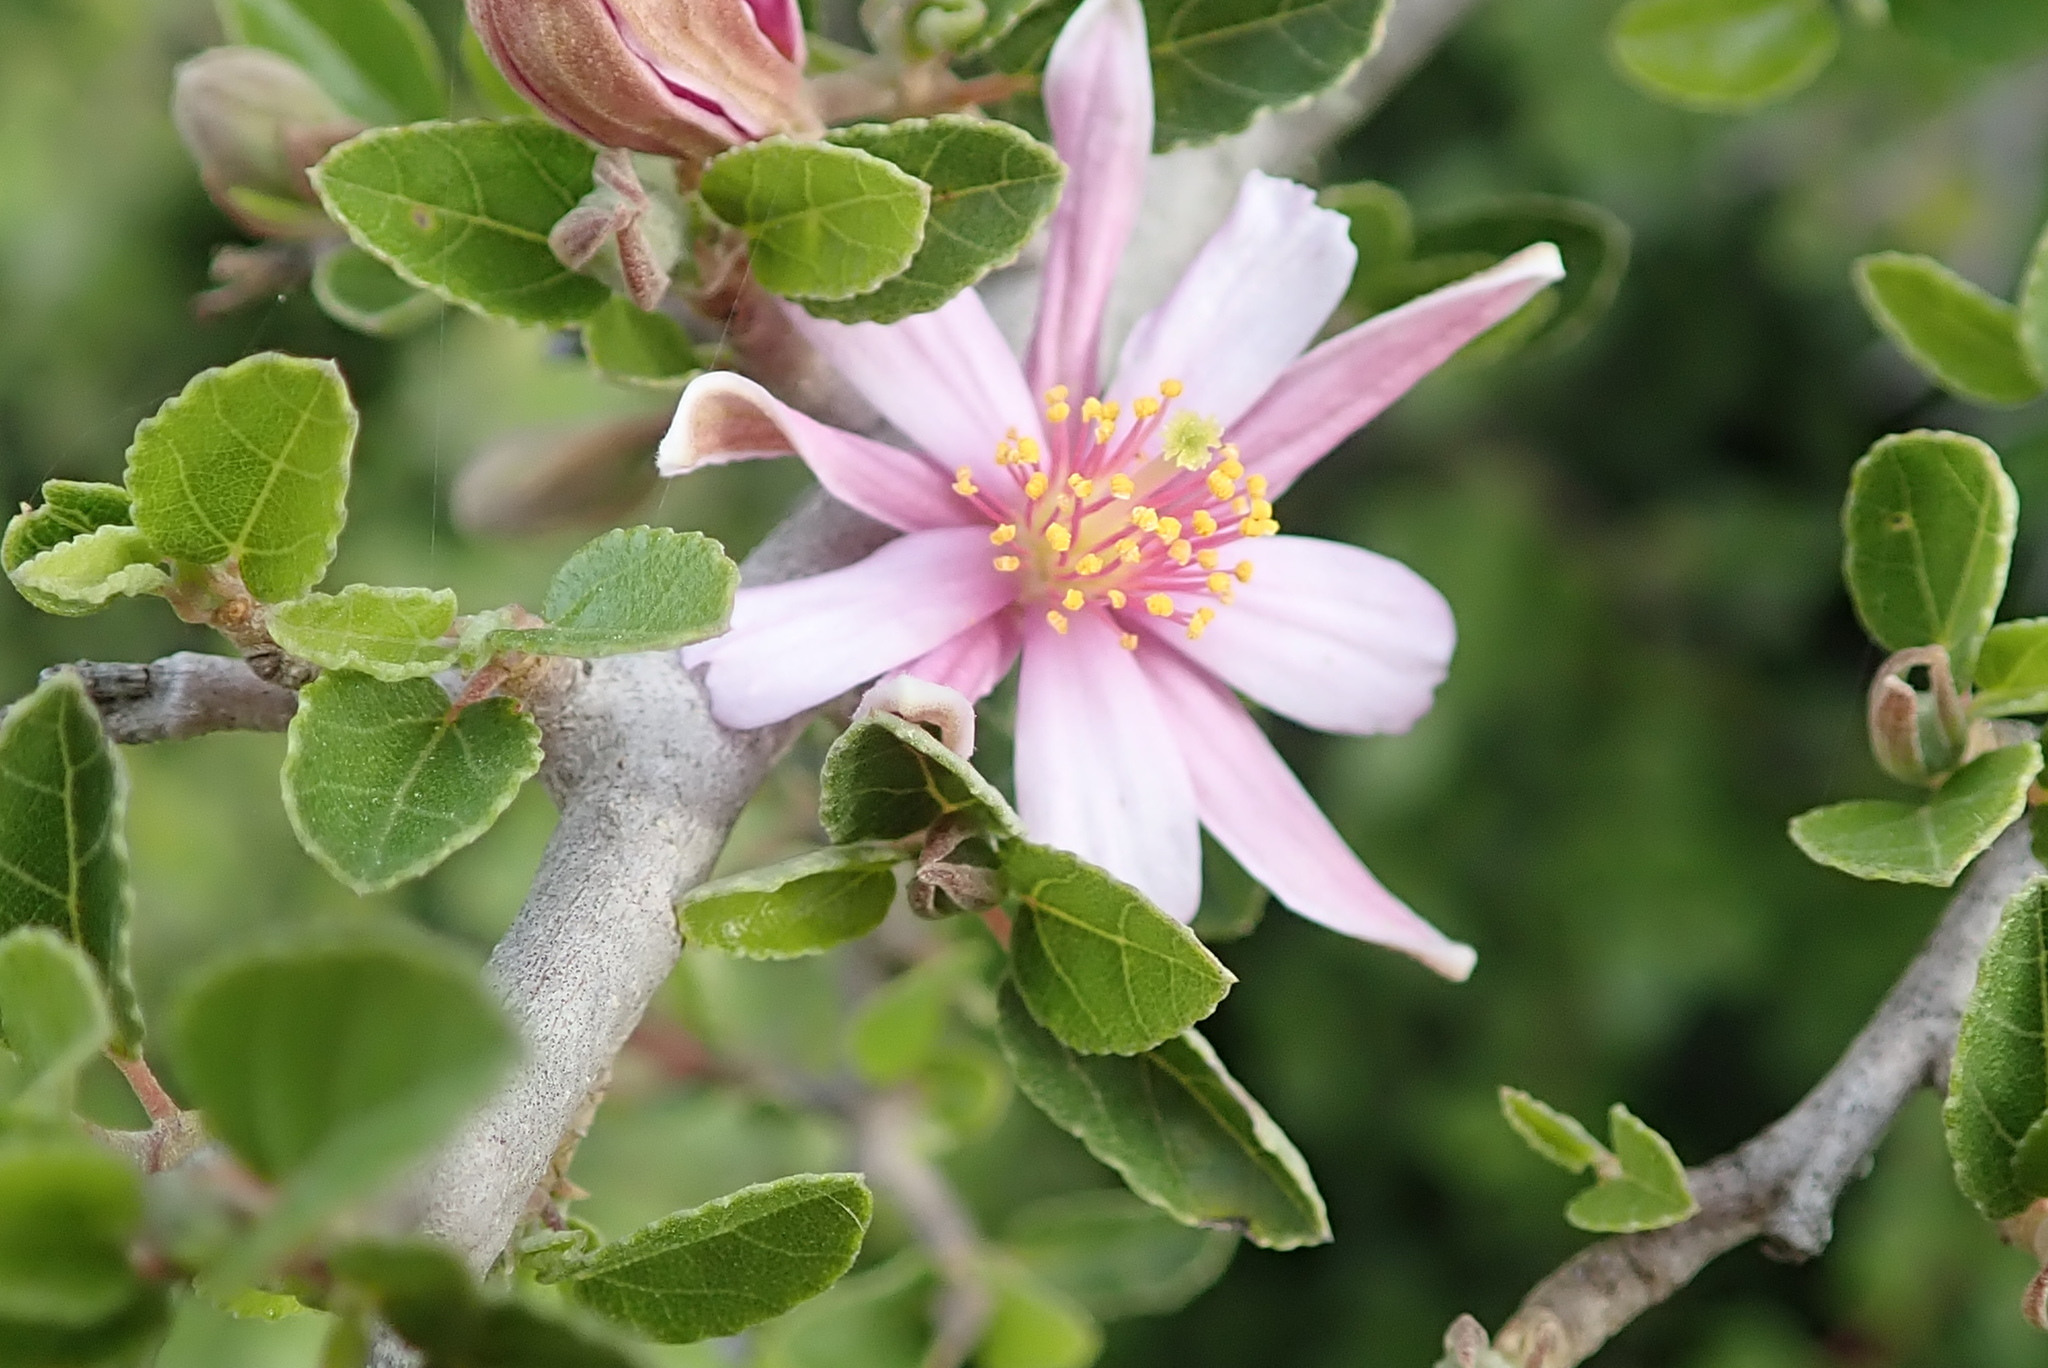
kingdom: Plantae
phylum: Tracheophyta
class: Magnoliopsida
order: Malvales
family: Malvaceae
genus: Grewia
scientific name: Grewia robusta
